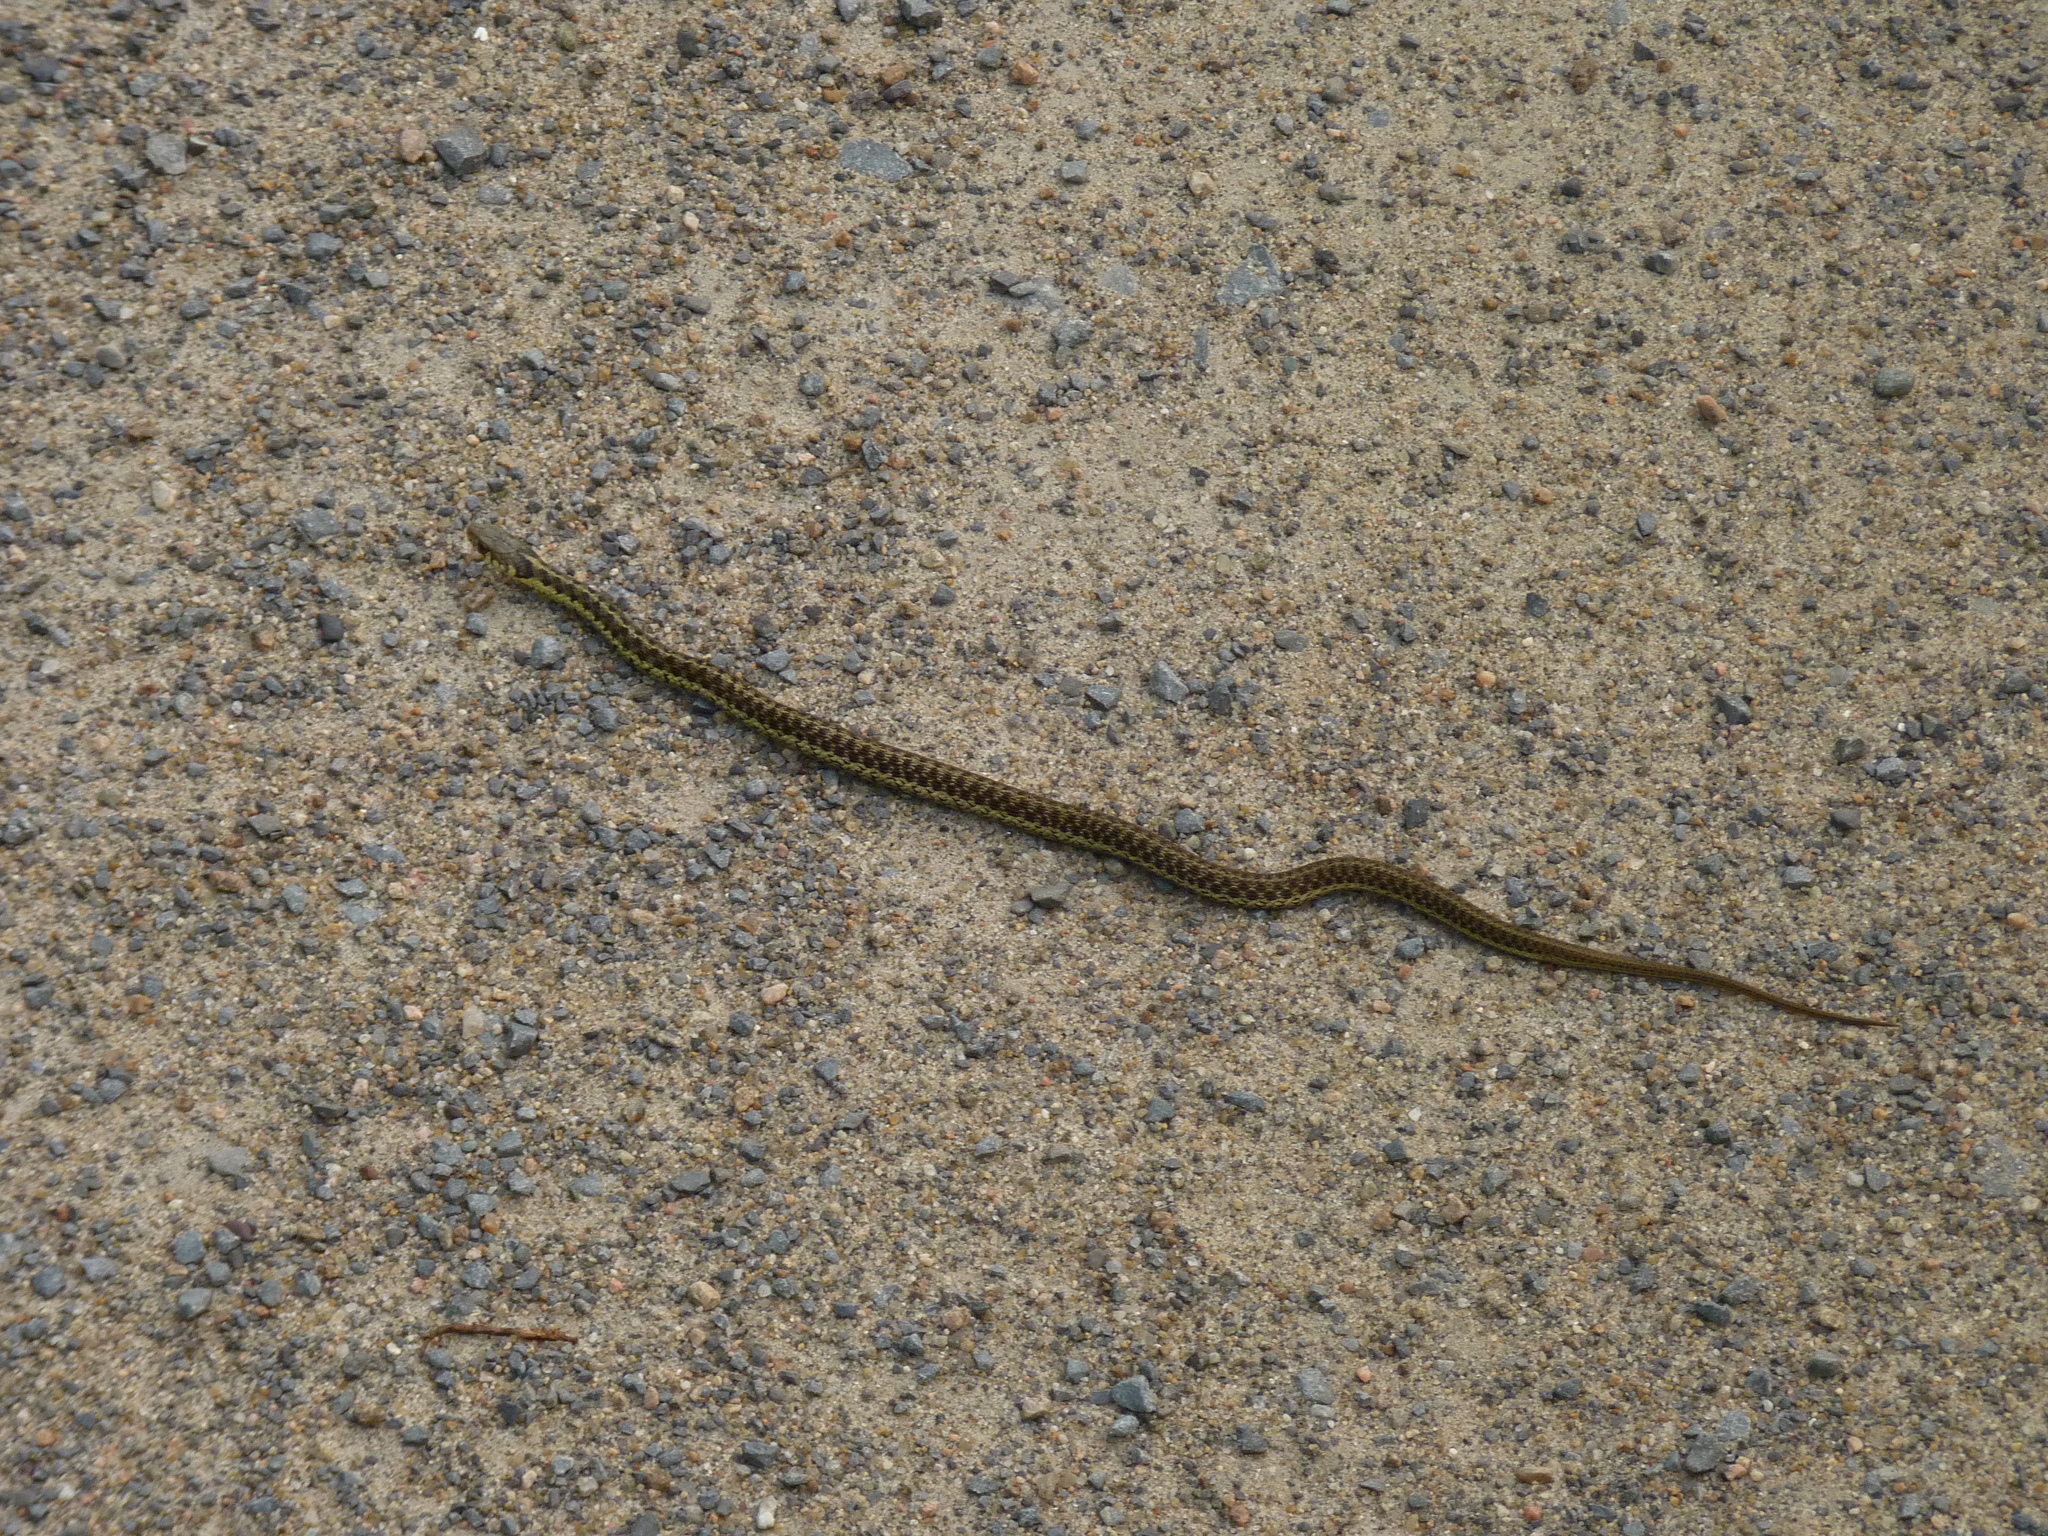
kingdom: Animalia
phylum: Chordata
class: Squamata
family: Colubridae
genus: Thamnophis
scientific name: Thamnophis sirtalis
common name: Common garter snake
